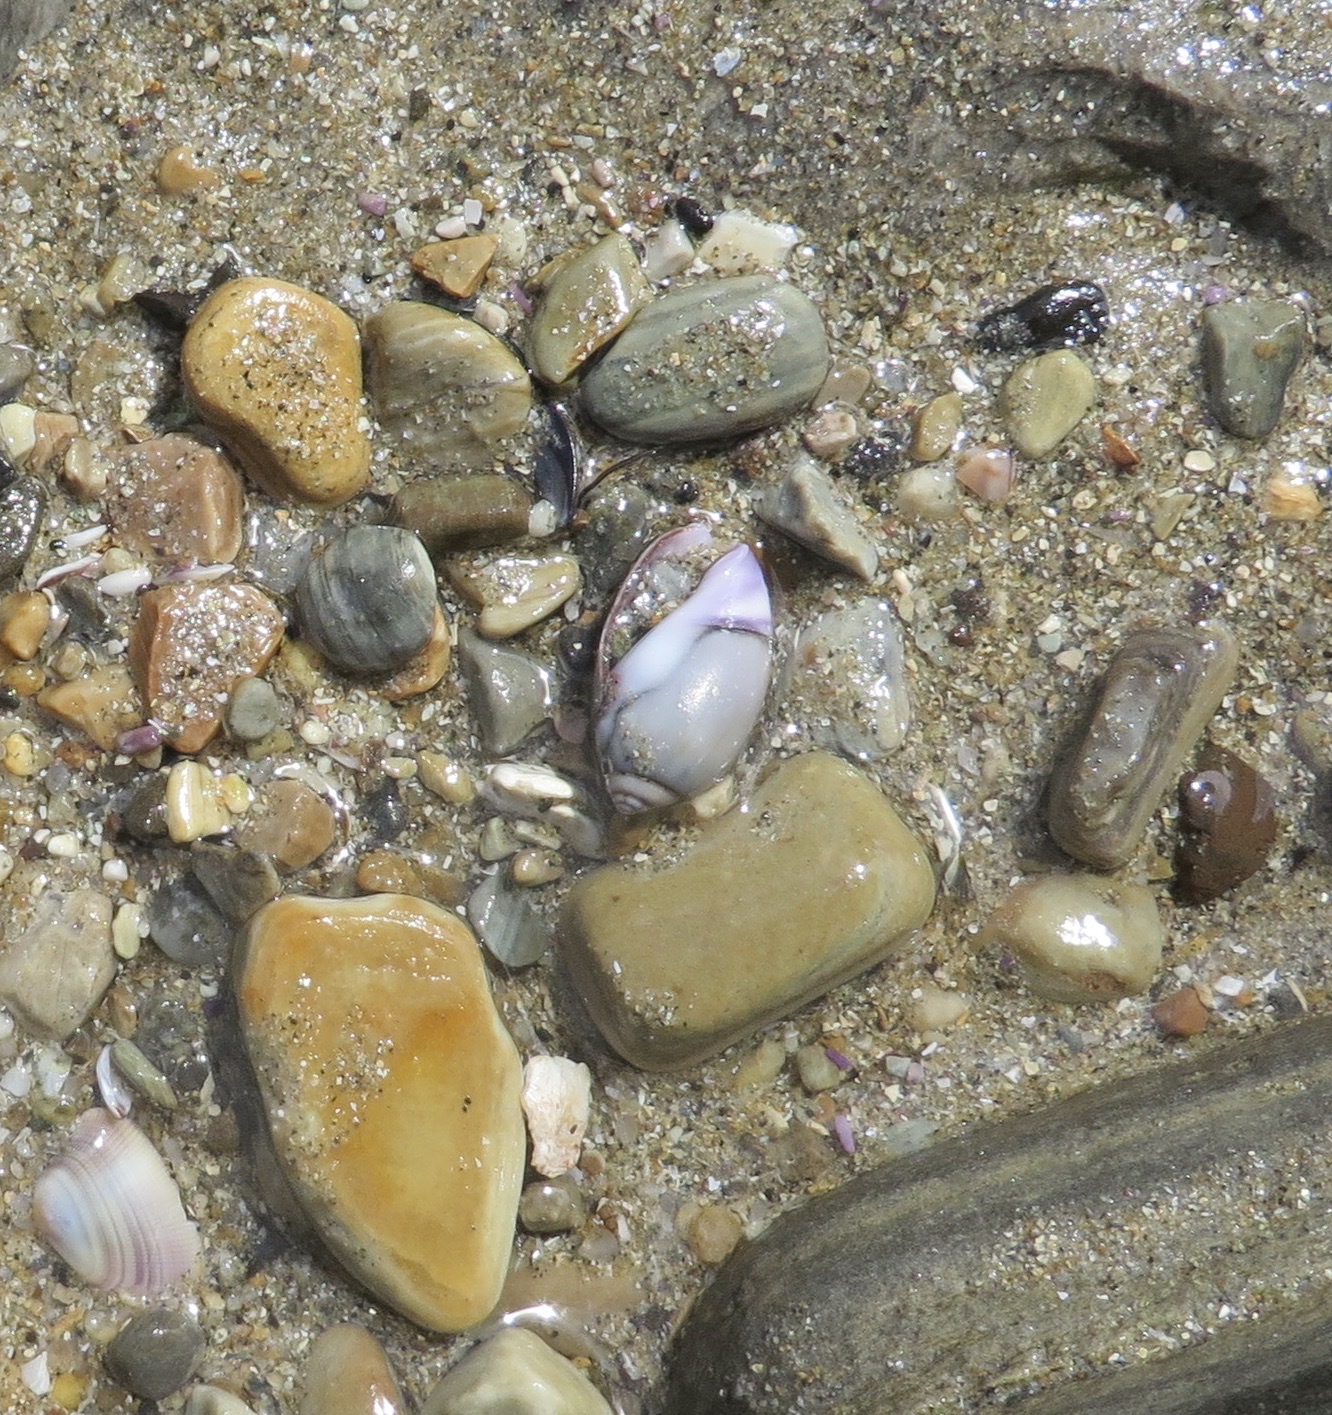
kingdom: Animalia
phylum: Mollusca
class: Gastropoda
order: Neogastropoda
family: Olividae
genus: Callianax
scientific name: Callianax biplicata
